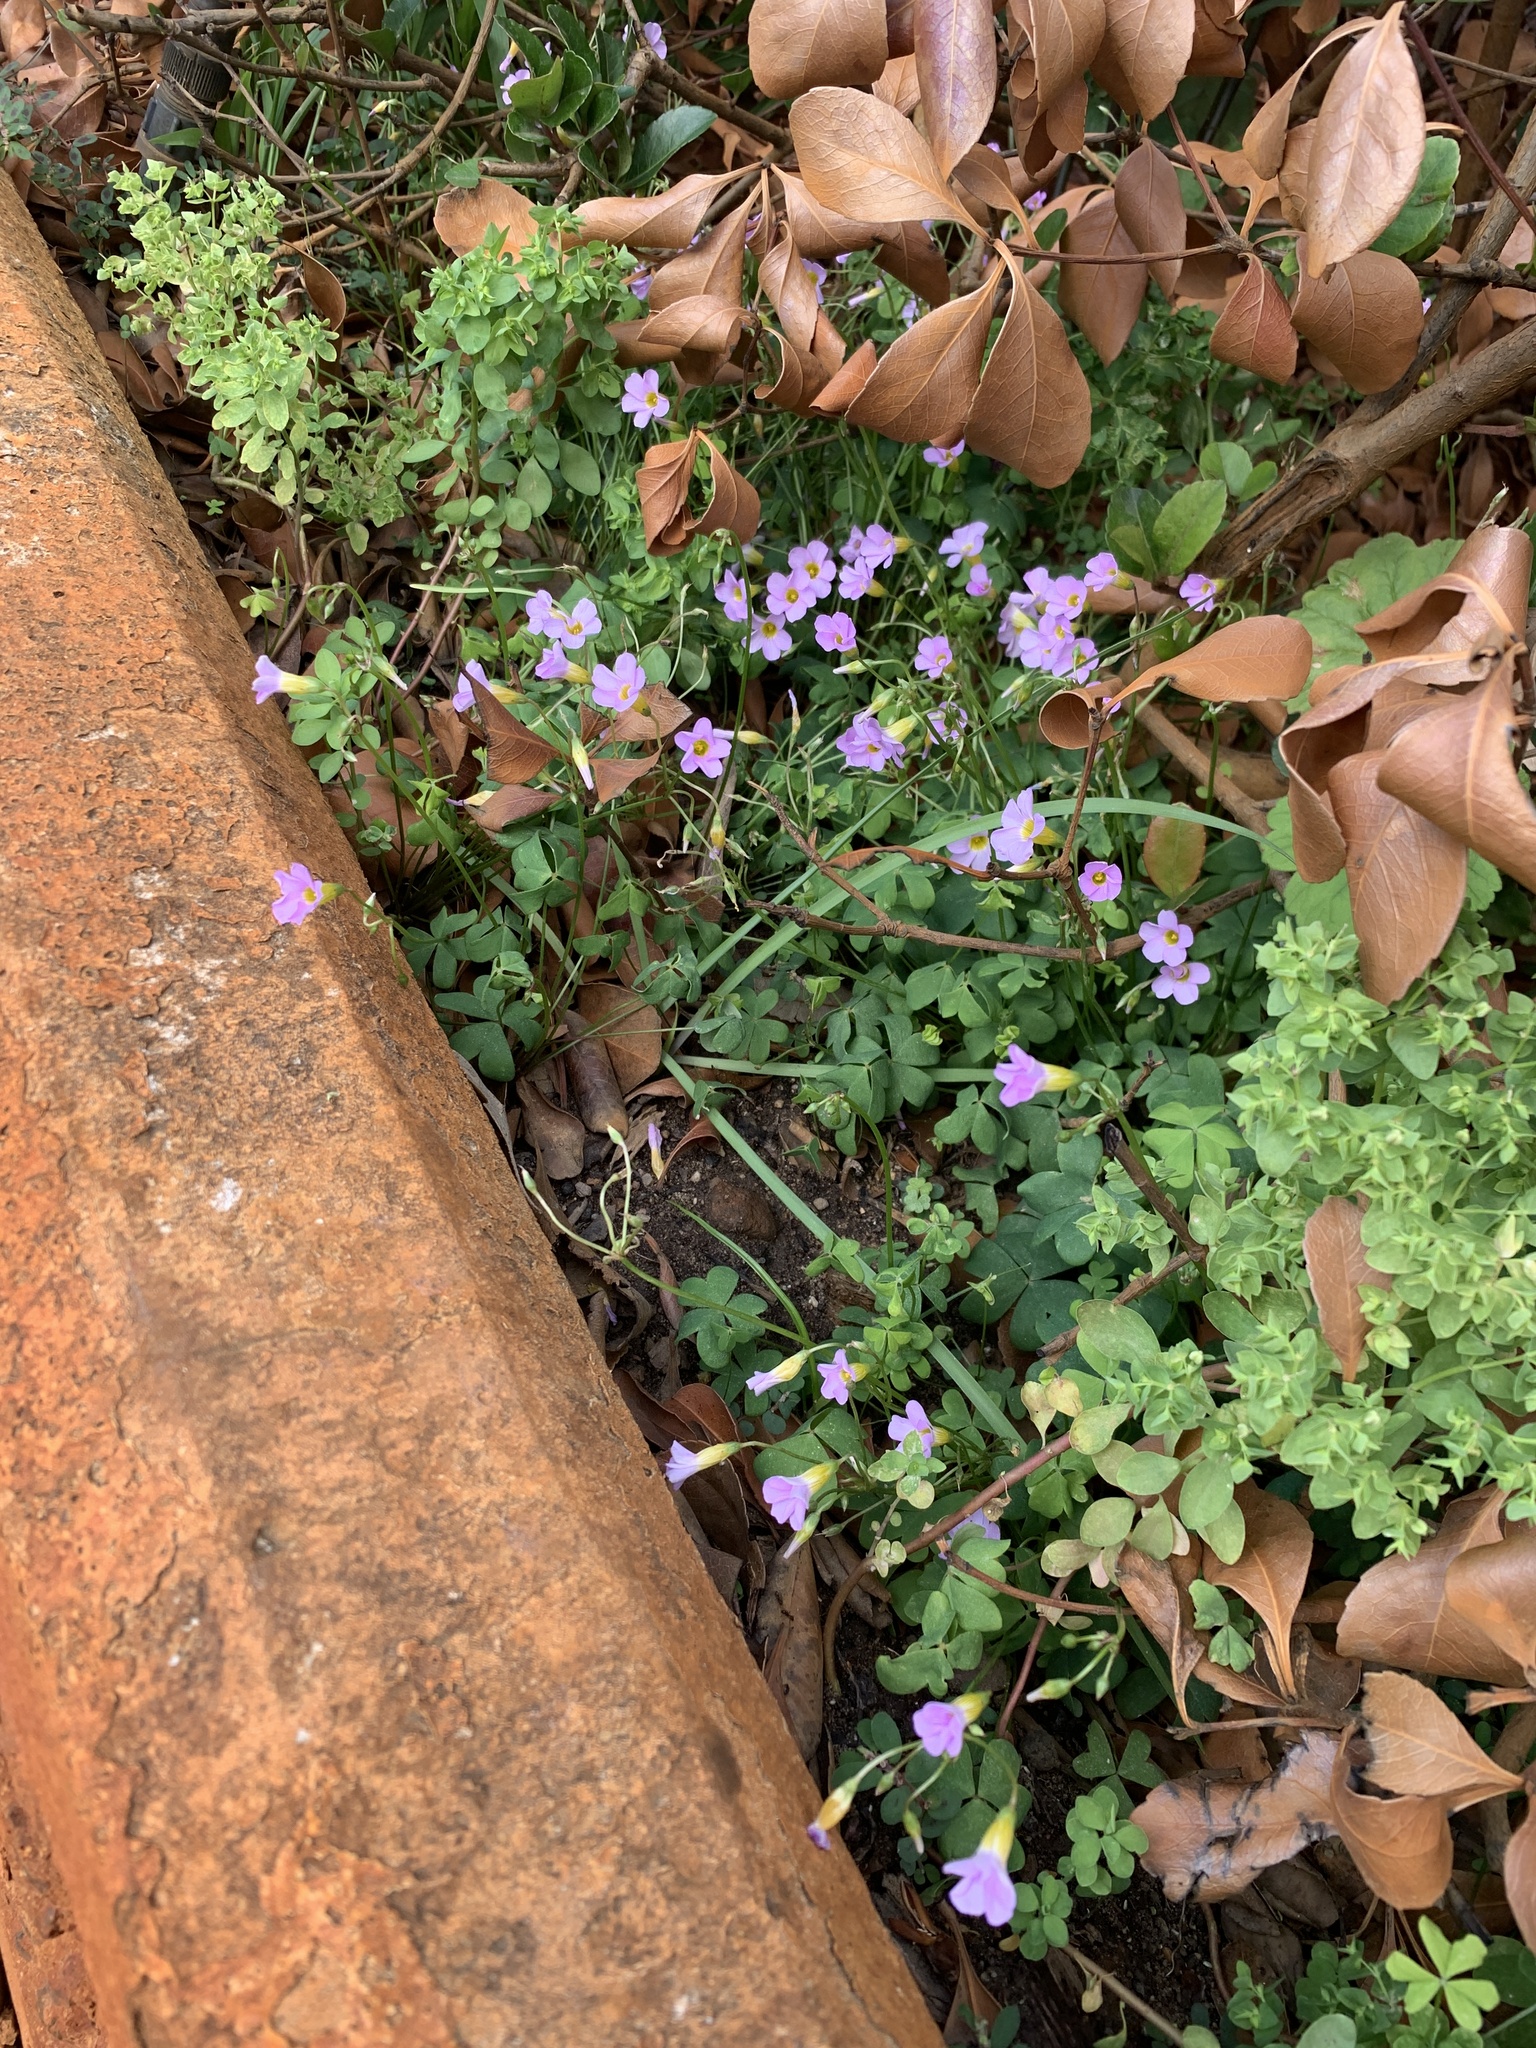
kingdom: Plantae
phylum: Tracheophyta
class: Magnoliopsida
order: Oxalidales
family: Oxalidaceae
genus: Oxalis
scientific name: Oxalis caprina
